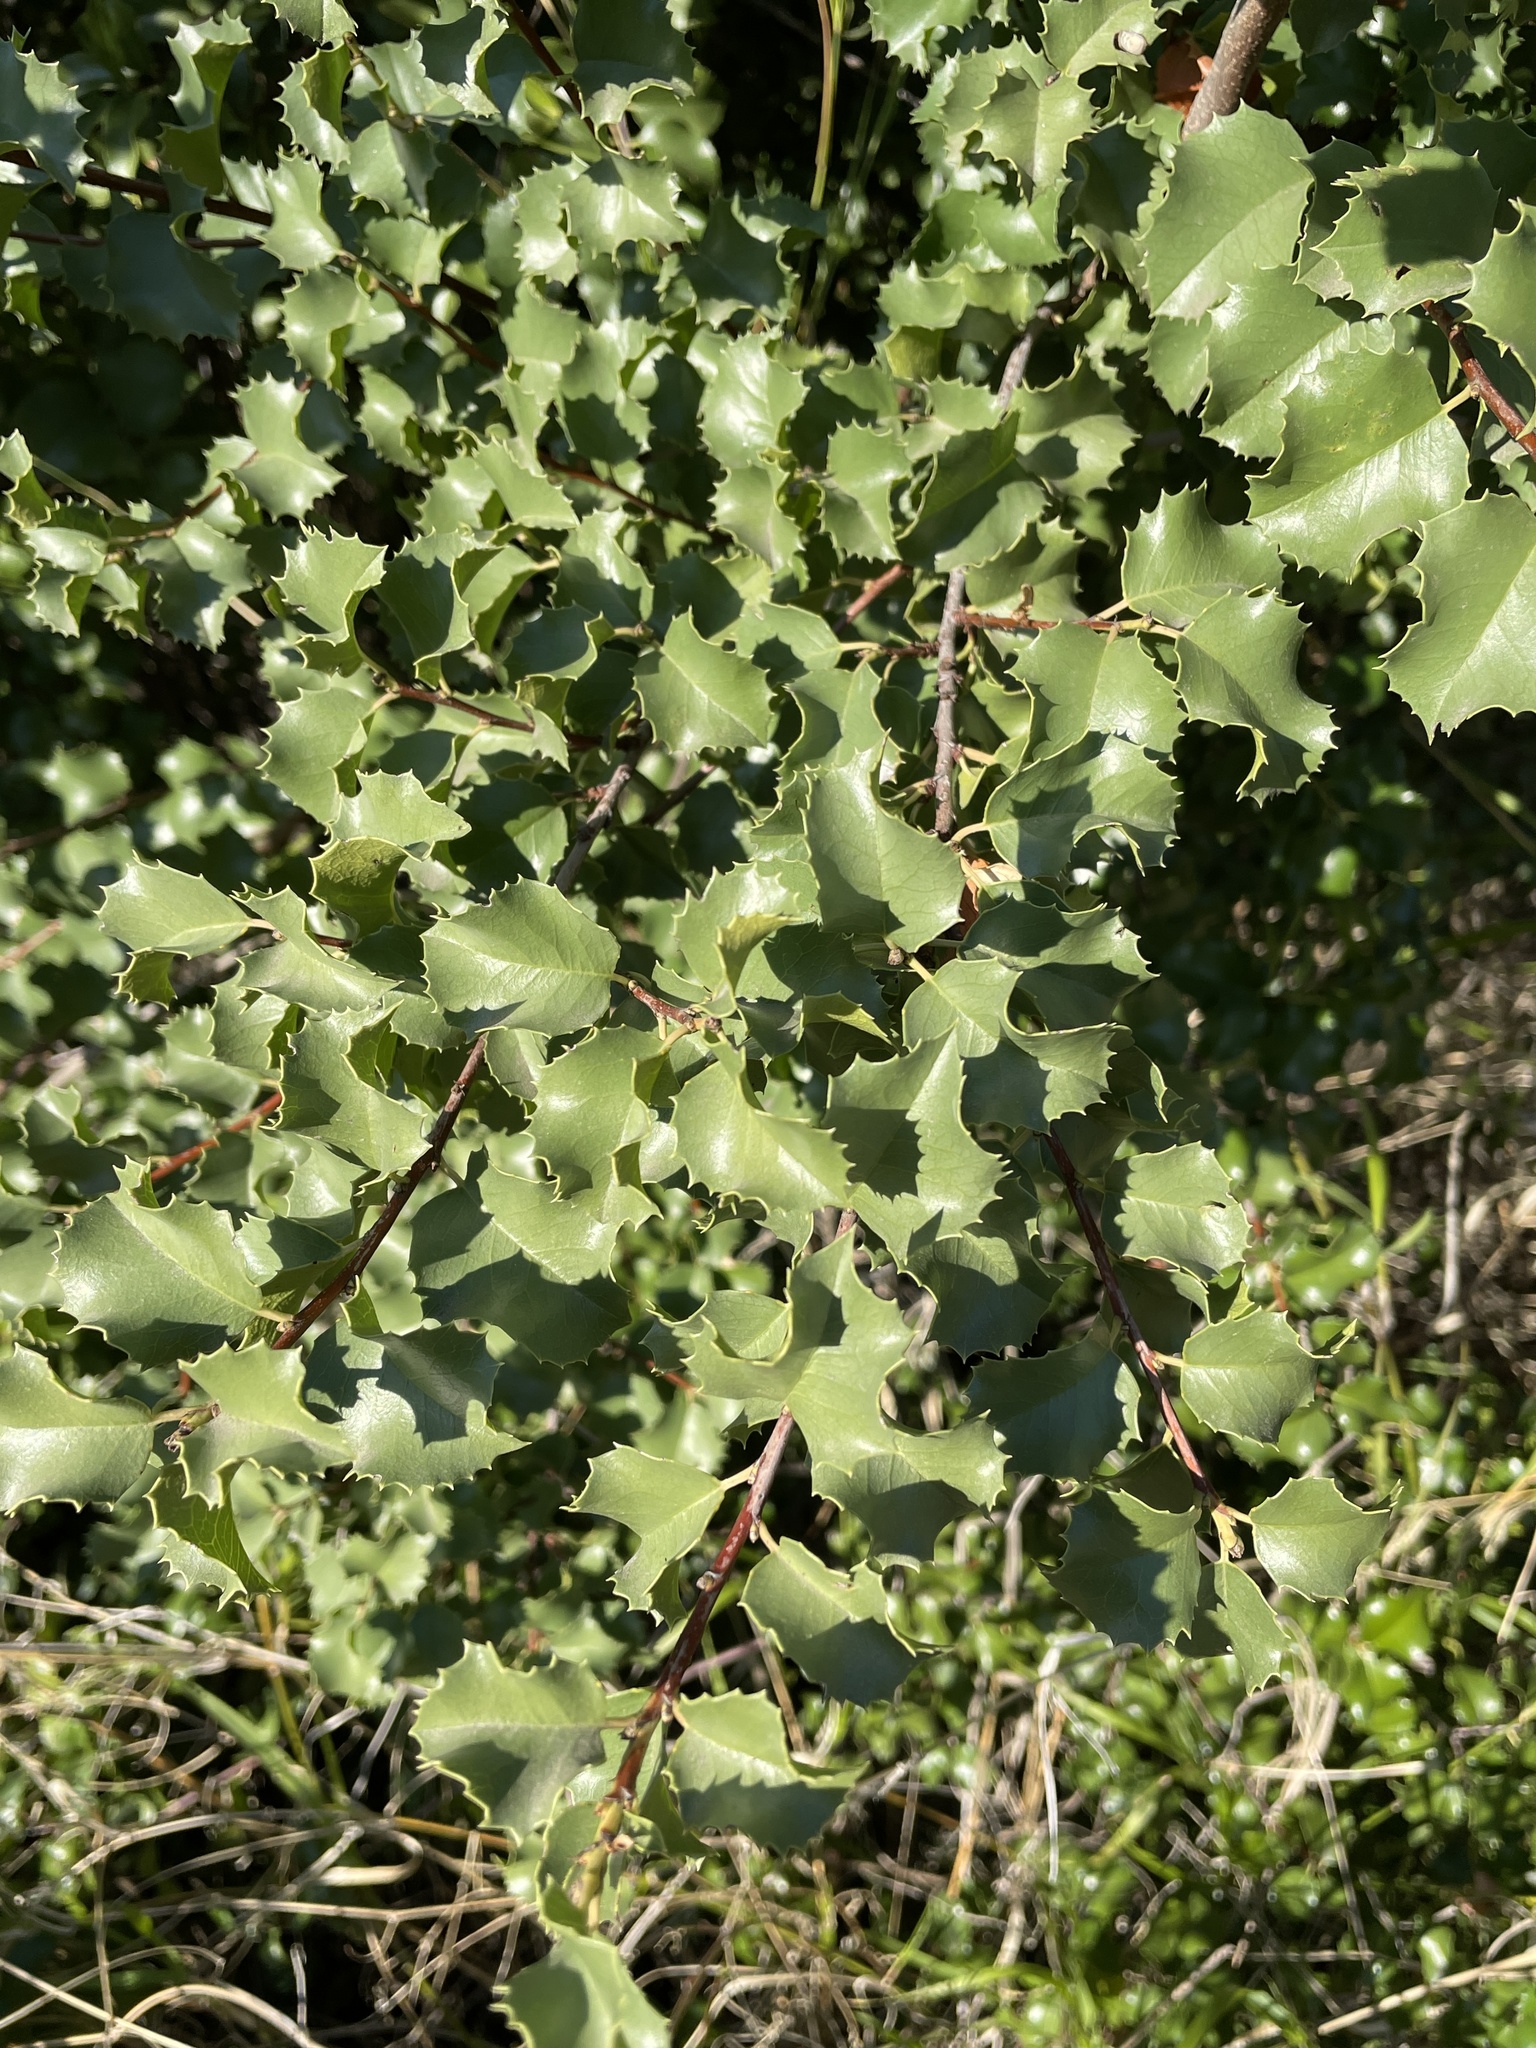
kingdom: Plantae
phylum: Tracheophyta
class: Magnoliopsida
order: Rosales
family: Rosaceae
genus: Prunus
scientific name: Prunus ilicifolia
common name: Hollyleaf cherry
